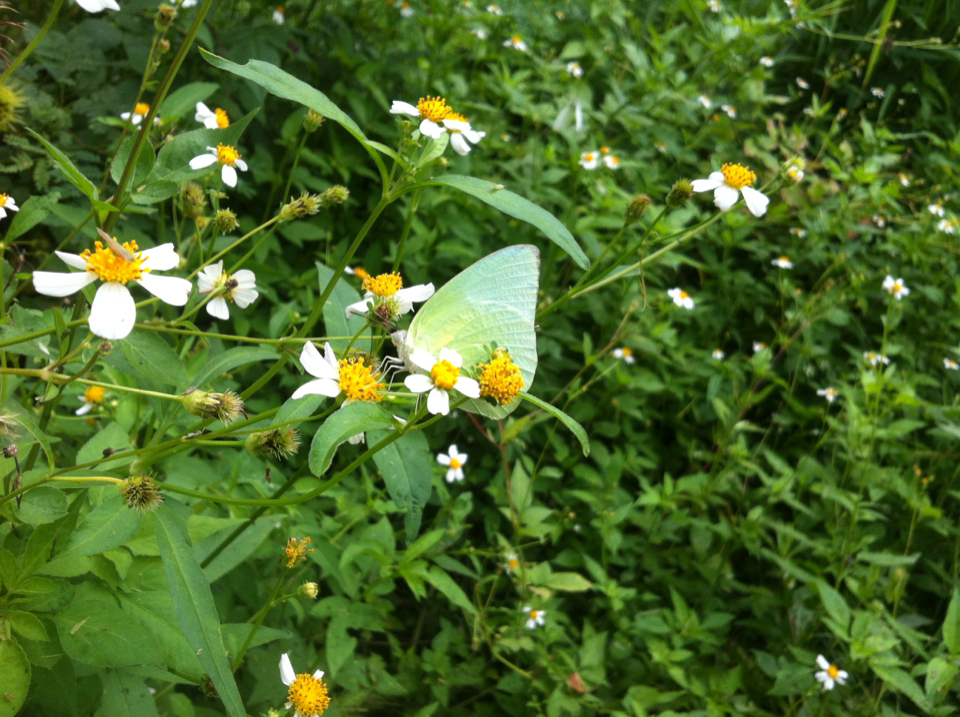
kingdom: Animalia
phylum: Arthropoda
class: Insecta
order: Lepidoptera
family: Pieridae
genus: Catopsilia
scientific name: Catopsilia pomona
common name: Common emigrant
